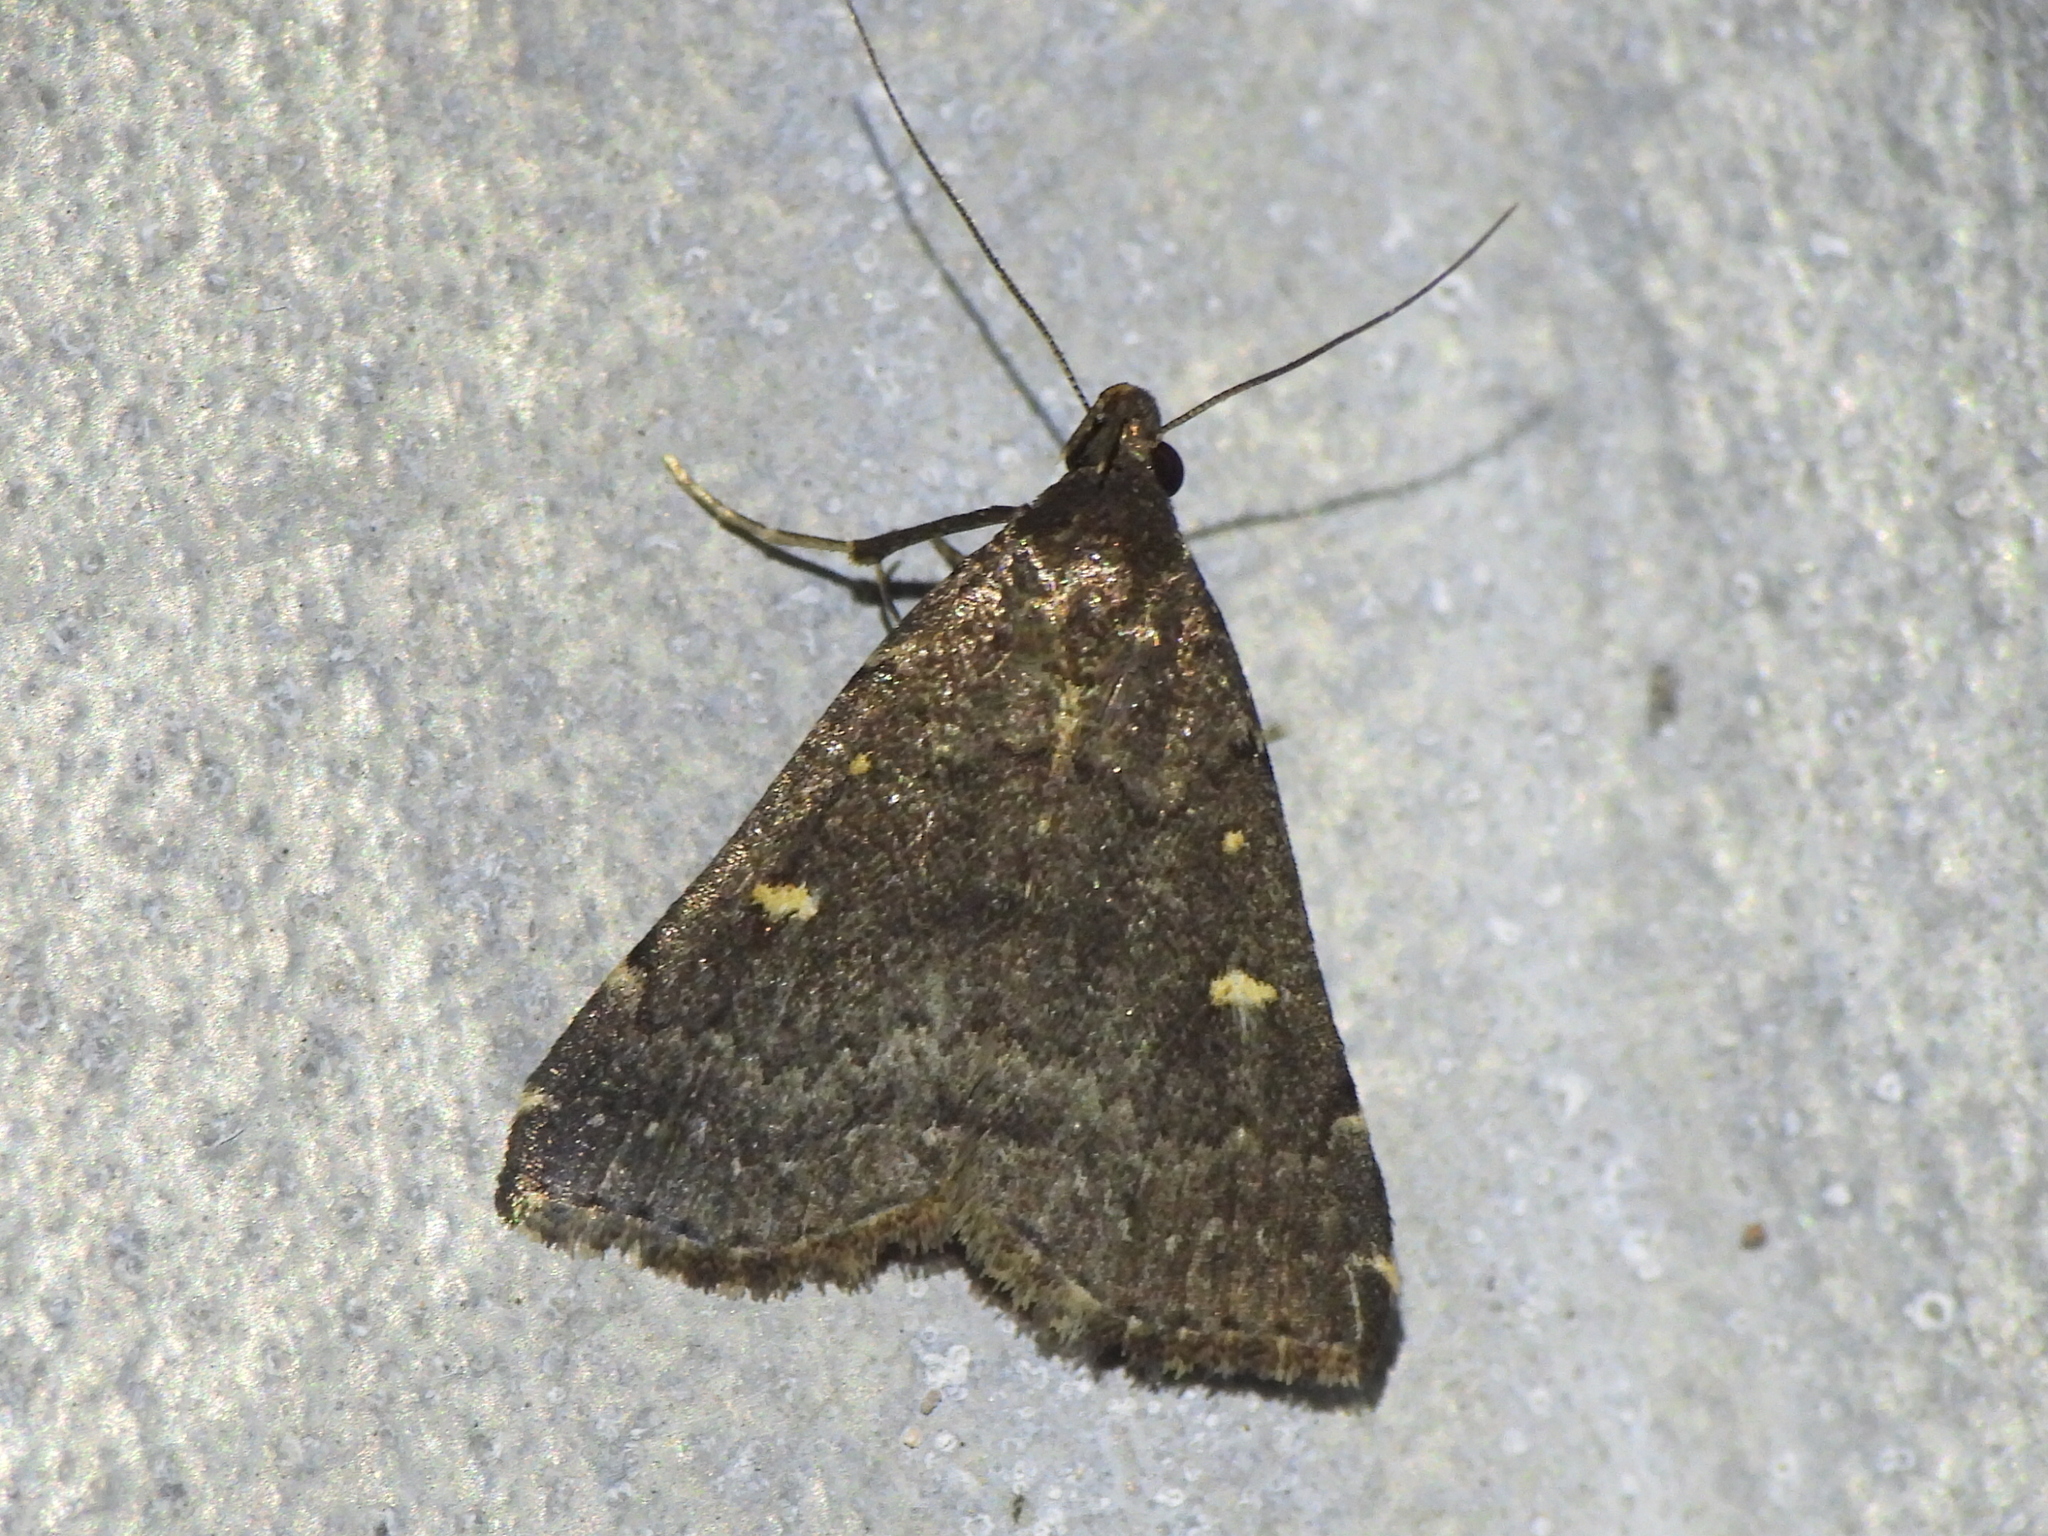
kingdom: Animalia
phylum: Arthropoda
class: Insecta
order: Lepidoptera
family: Erebidae
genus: Tetanolita
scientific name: Tetanolita mynesalis
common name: Smoky tetanolita moth
